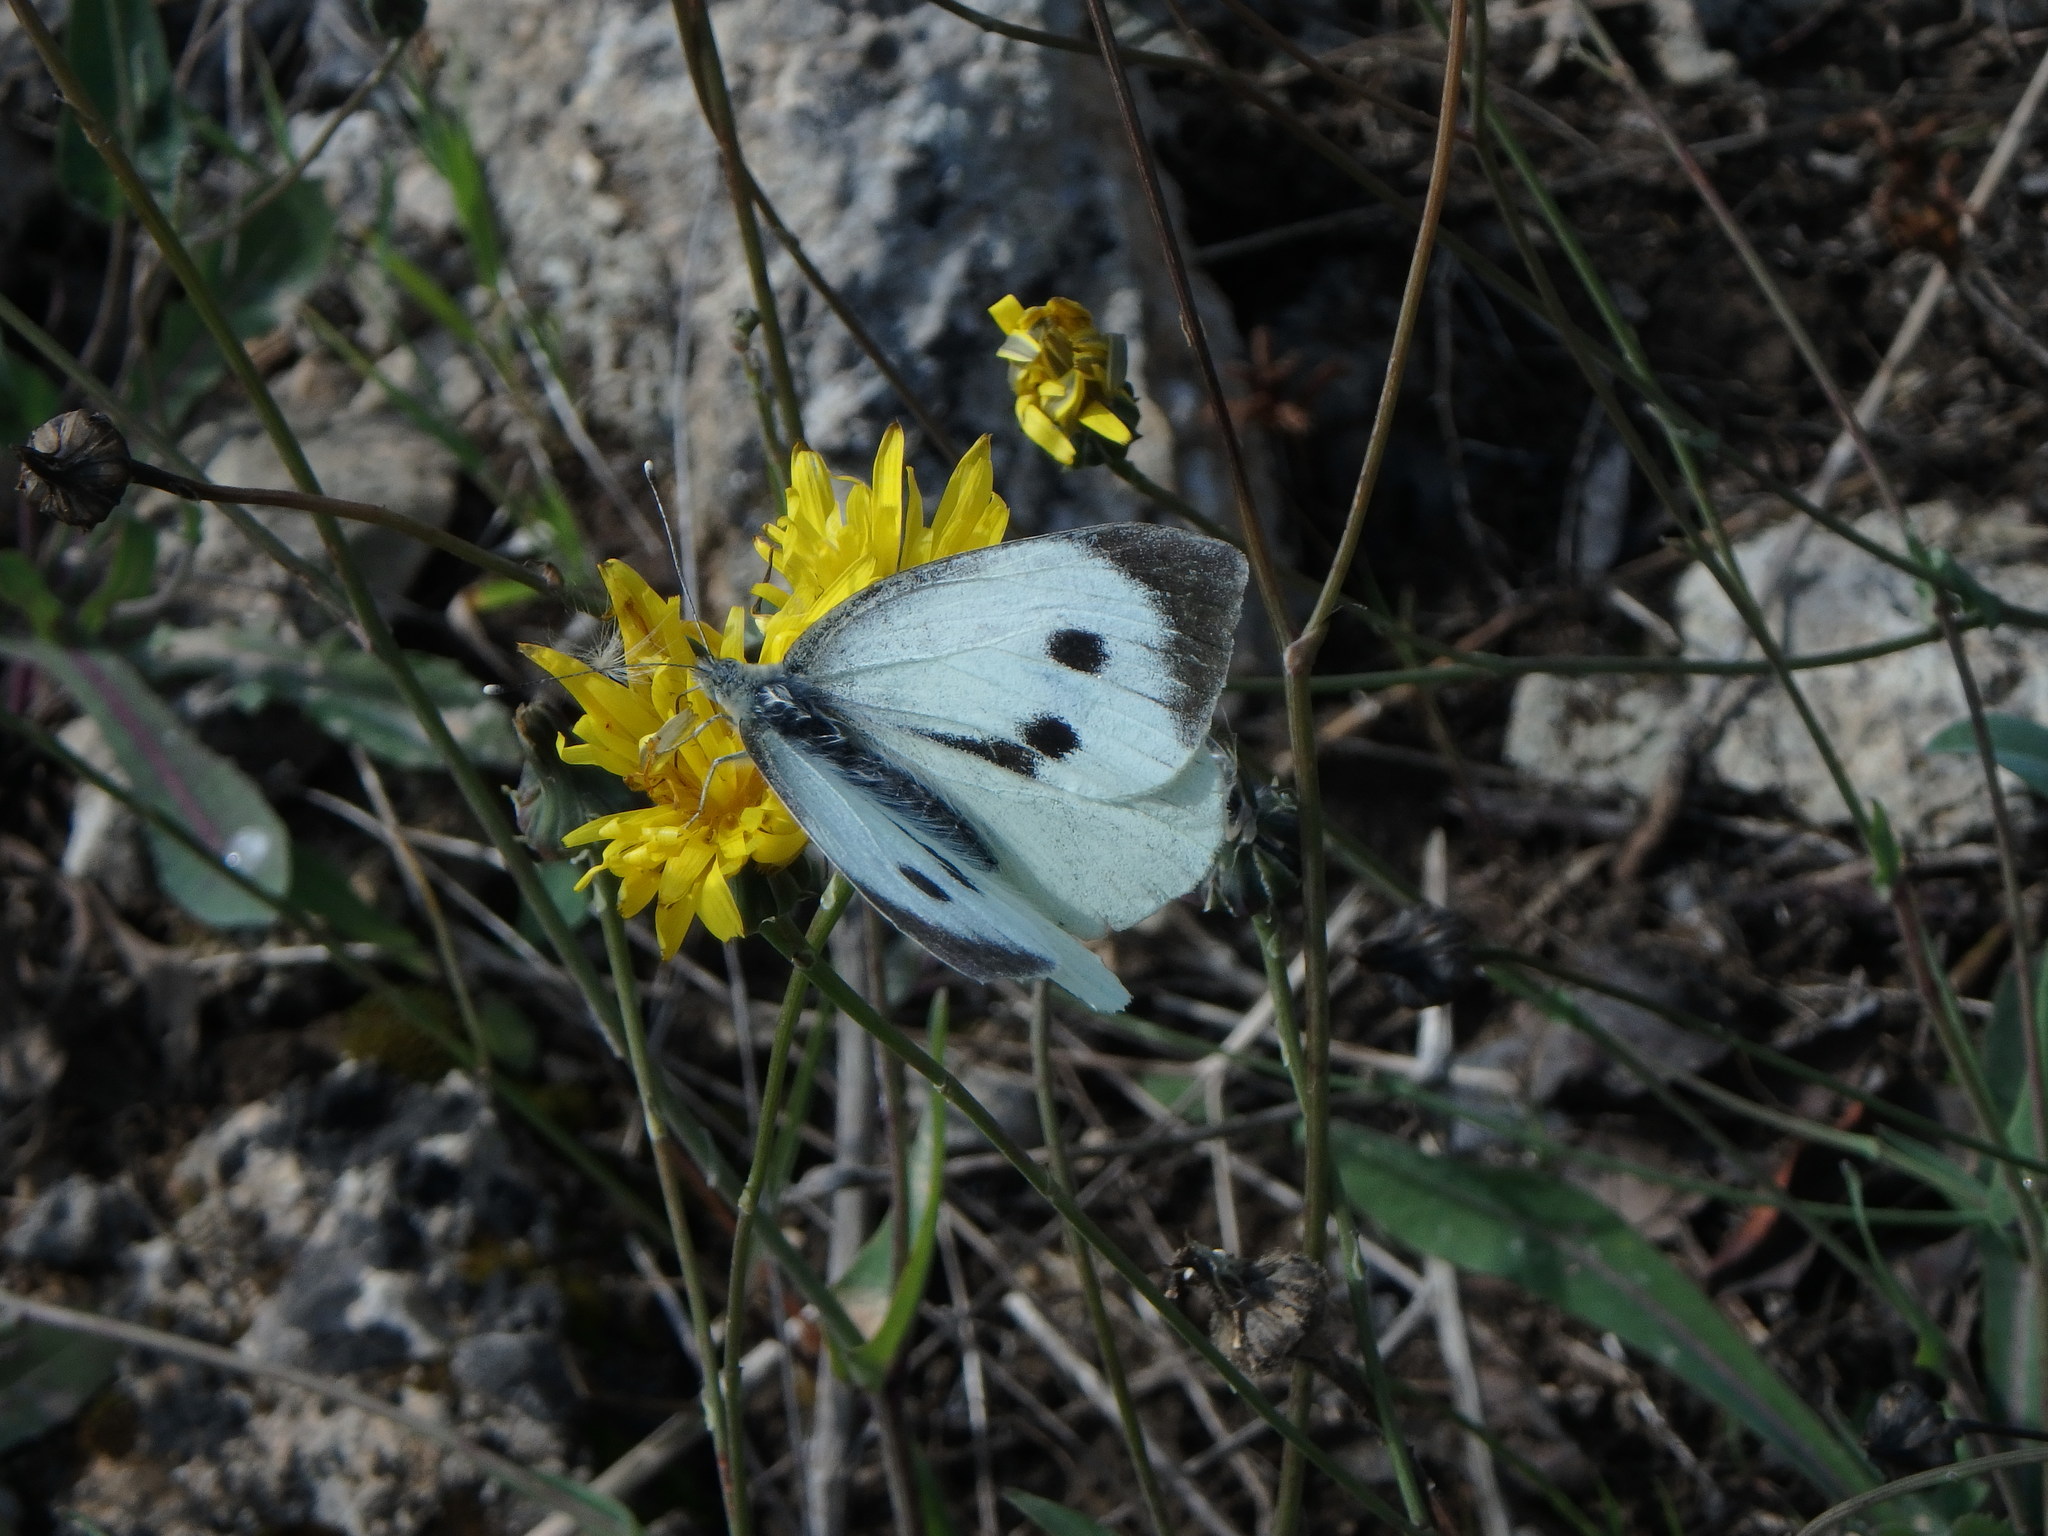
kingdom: Animalia
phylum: Arthropoda
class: Insecta
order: Lepidoptera
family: Pieridae
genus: Pieris
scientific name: Pieris brassicae
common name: Large white
